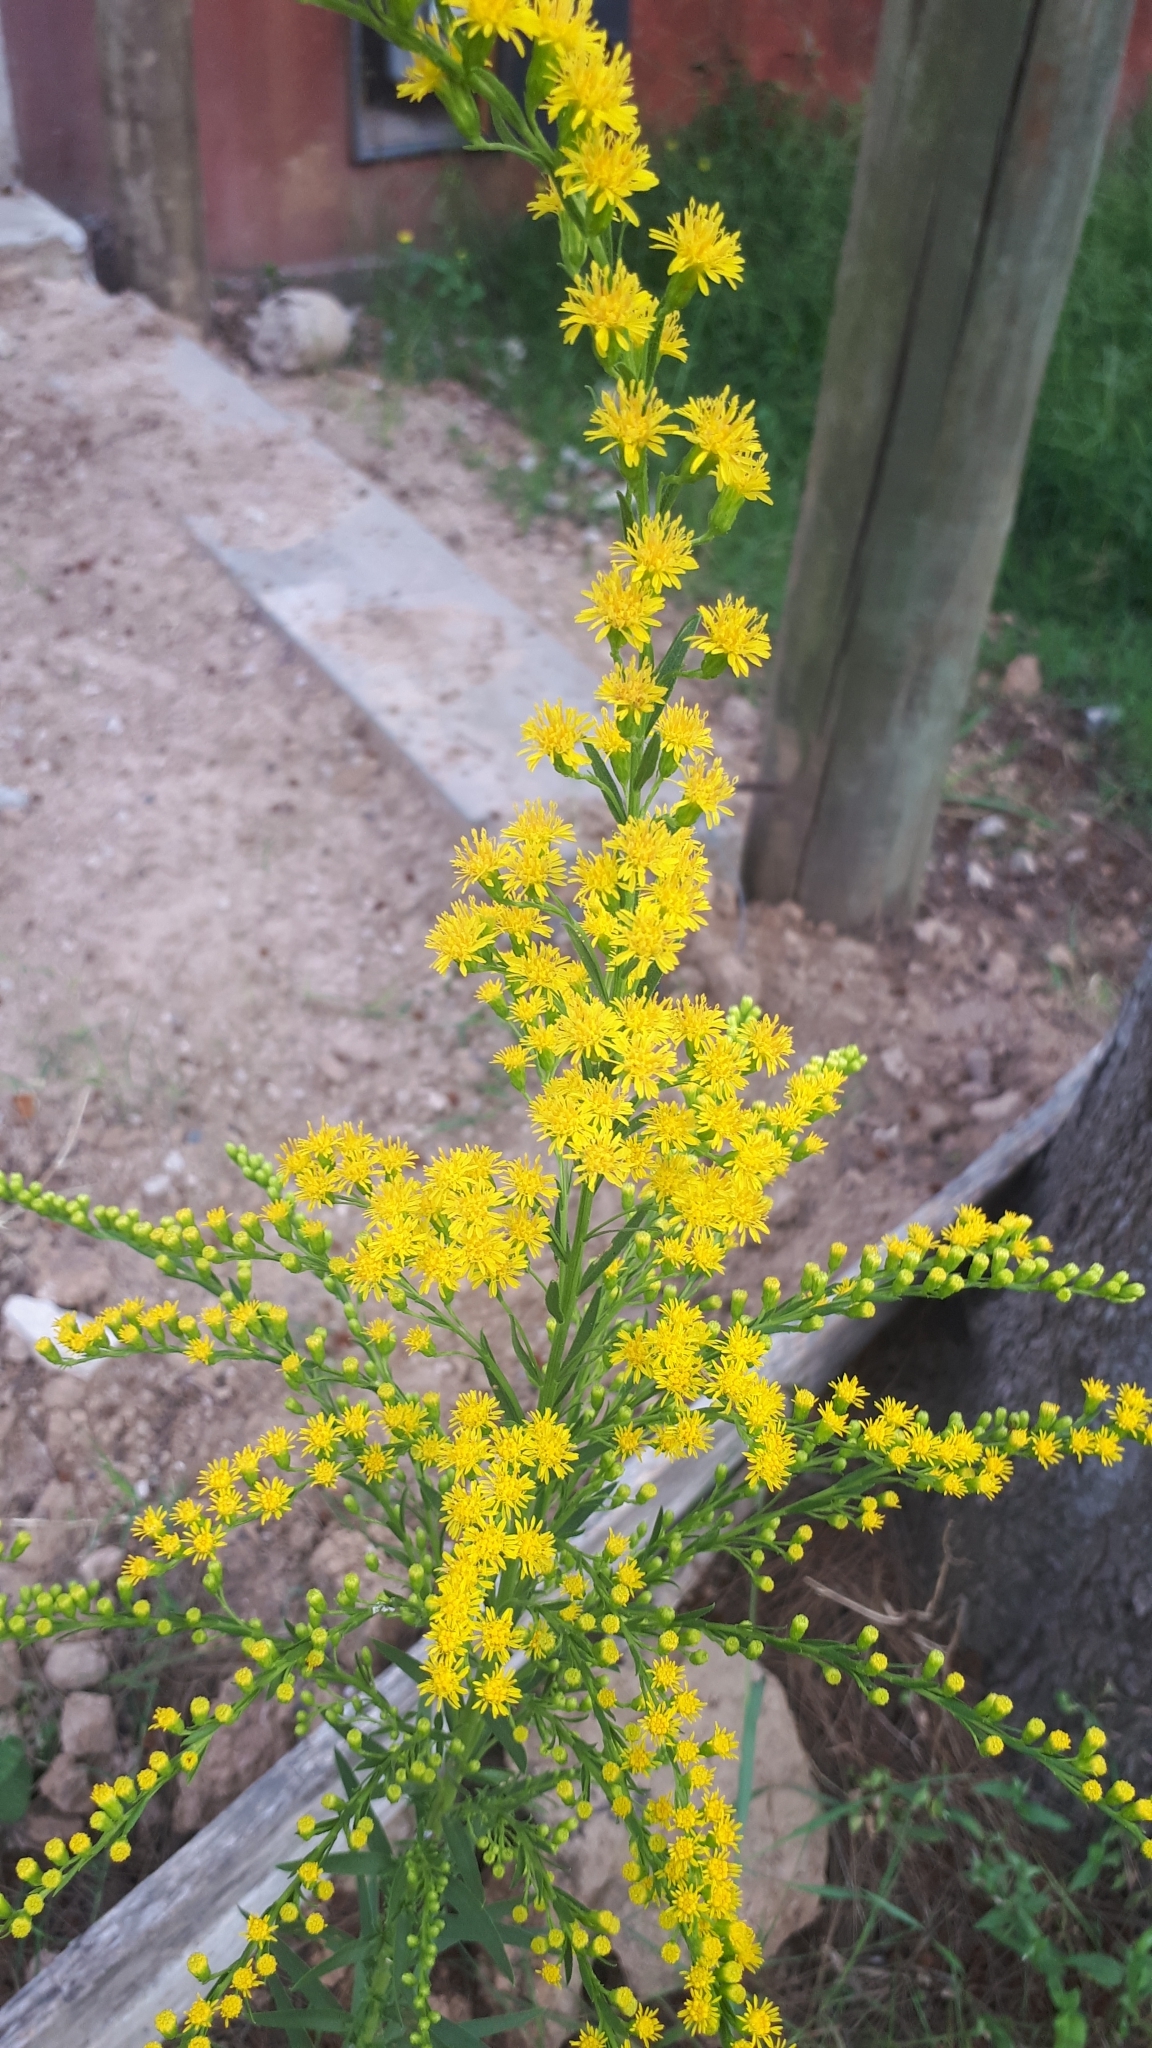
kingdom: Plantae
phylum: Tracheophyta
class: Magnoliopsida
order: Asterales
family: Asteraceae
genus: Solidago
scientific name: Solidago chilensis
